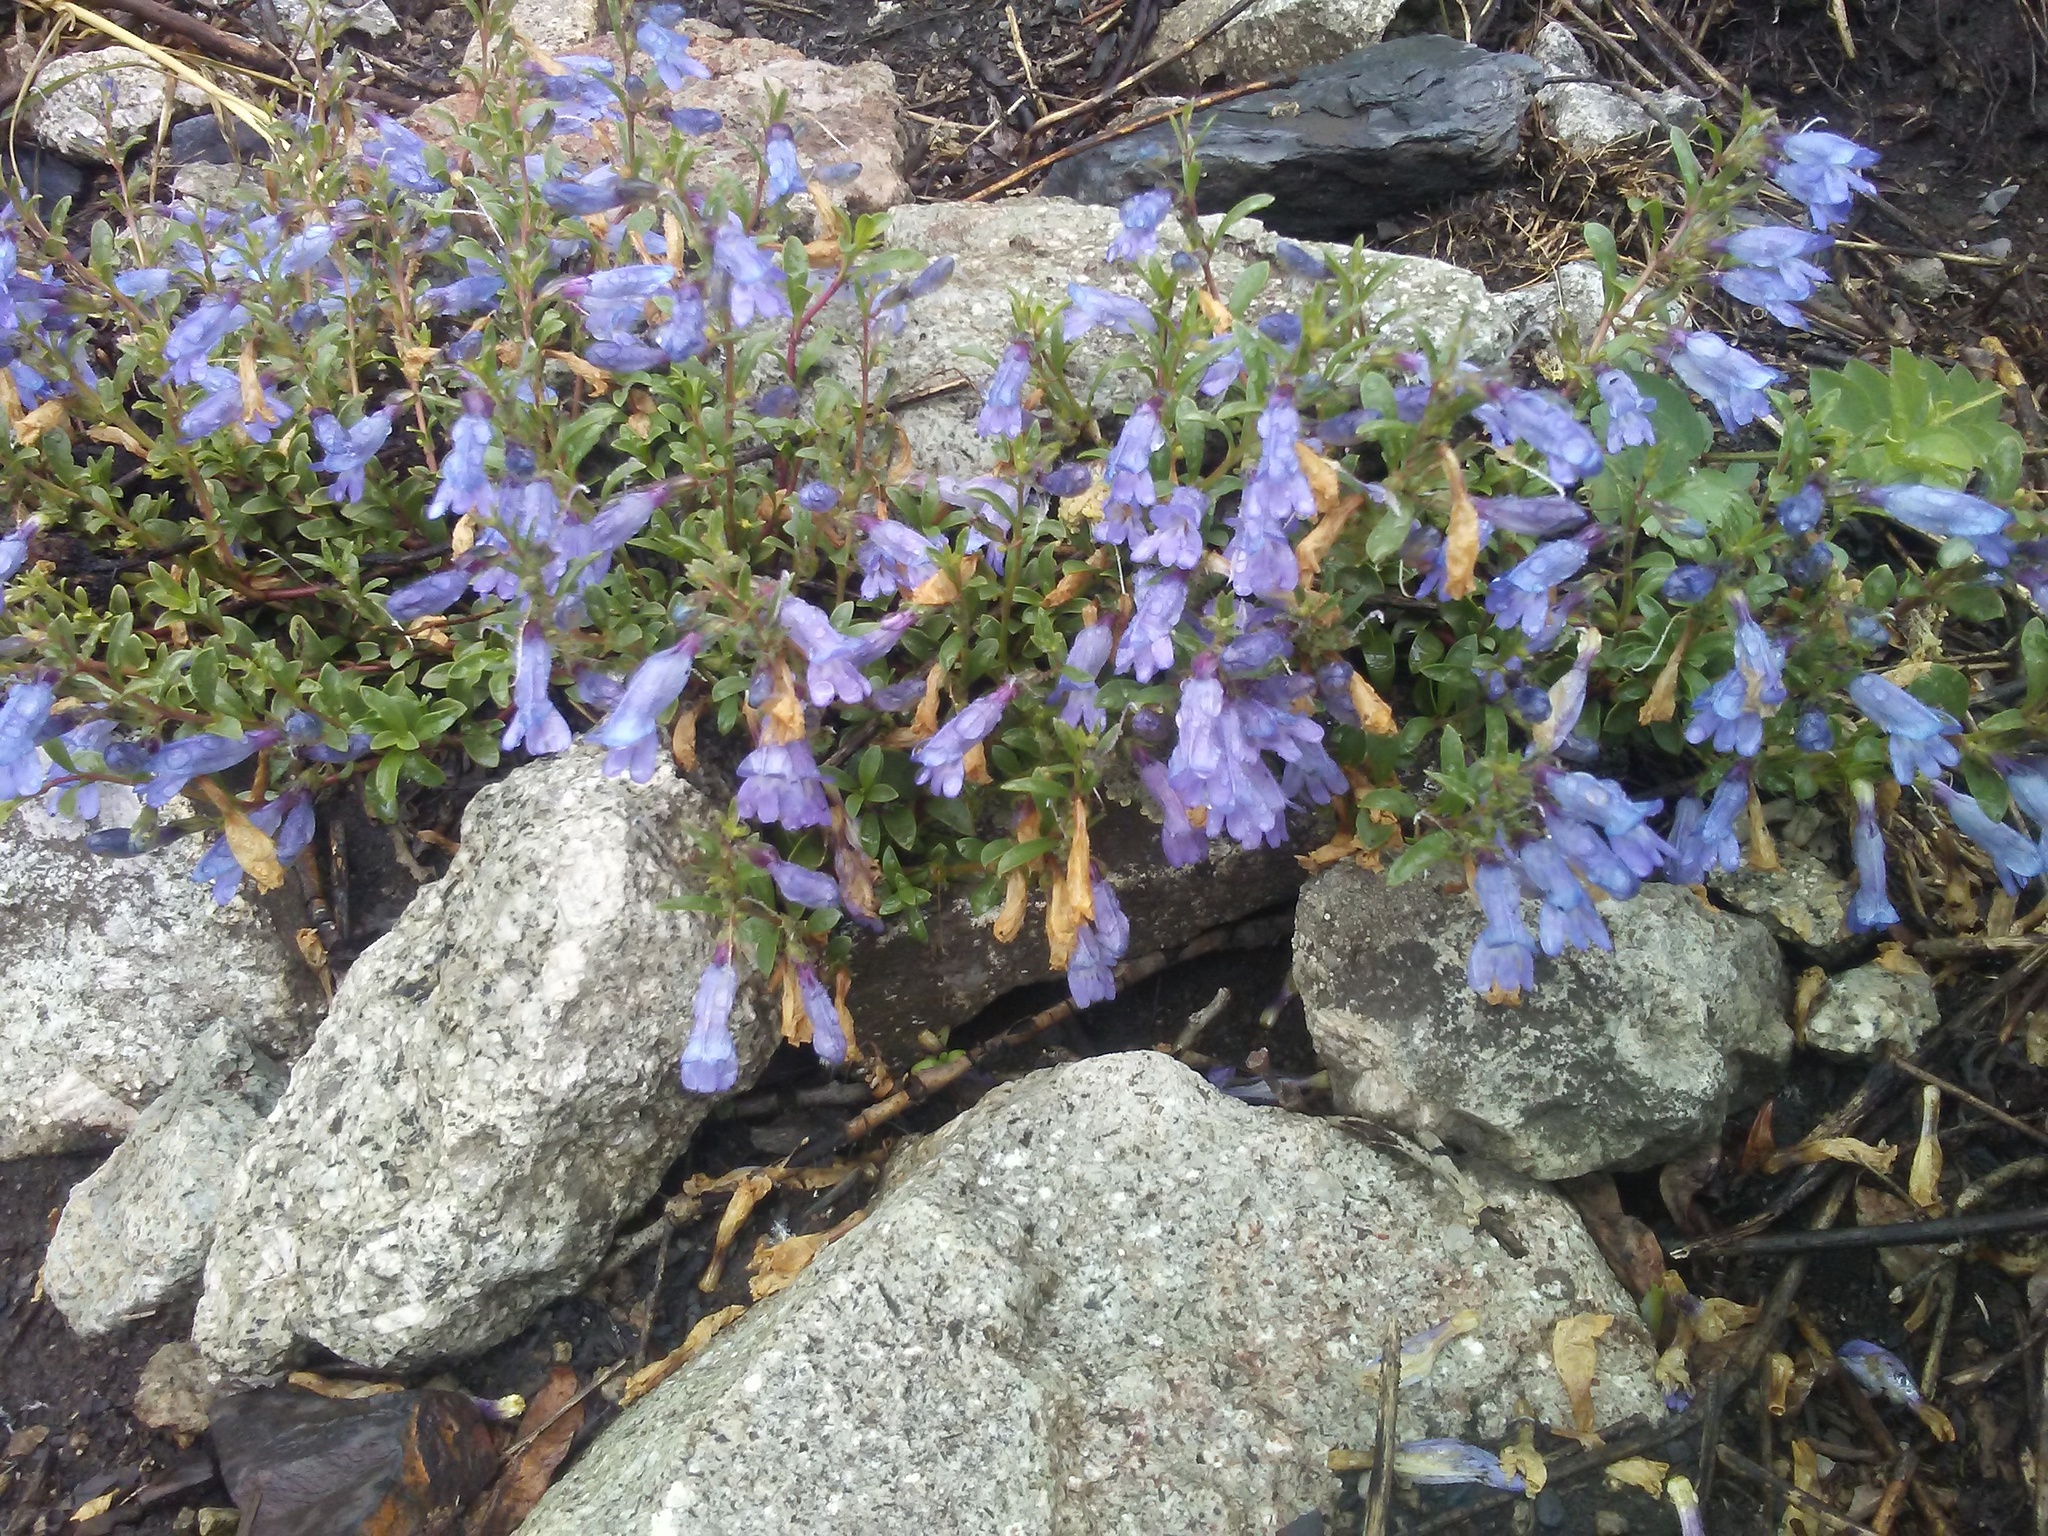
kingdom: Plantae
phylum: Tracheophyta
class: Magnoliopsida
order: Lamiales
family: Plantaginaceae
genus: Penstemon
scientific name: Penstemon crandallii
